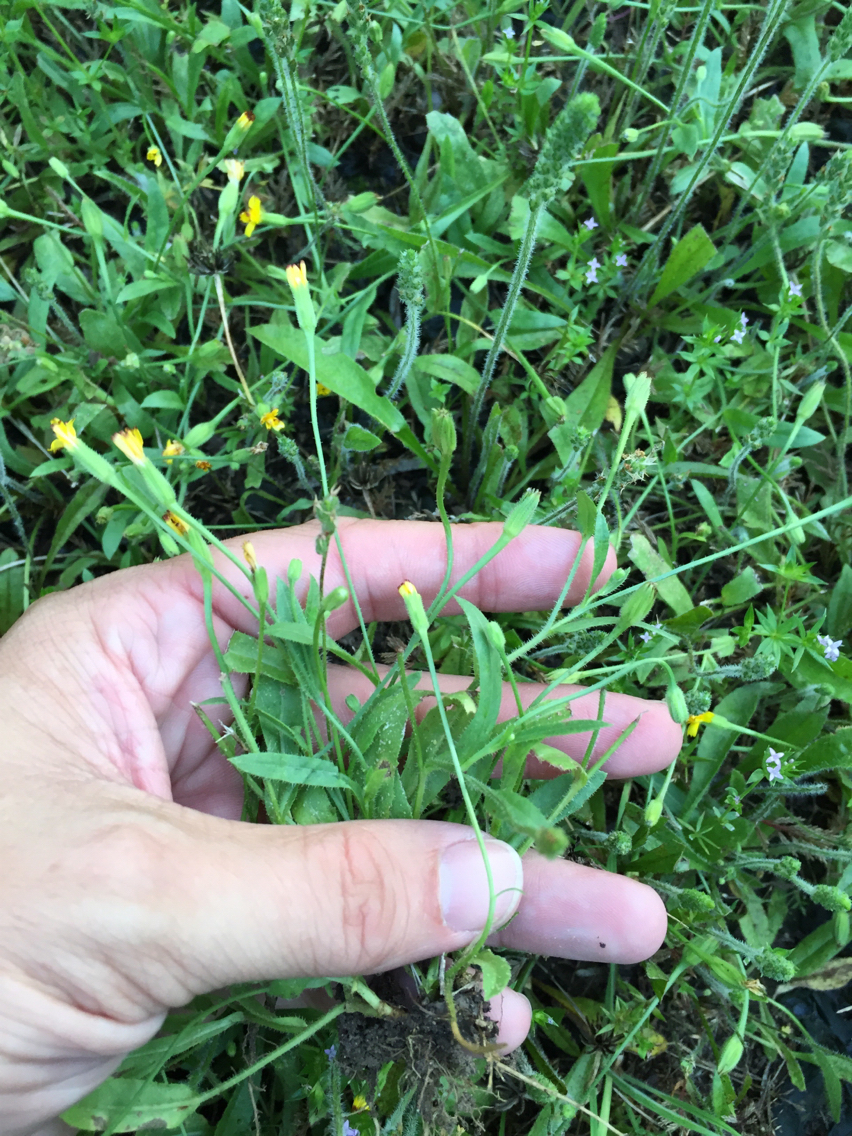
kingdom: Plantae
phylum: Tracheophyta
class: Magnoliopsida
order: Asterales
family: Asteraceae
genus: Hedypnois
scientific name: Hedypnois rhagadioloides
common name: Cretan weed
